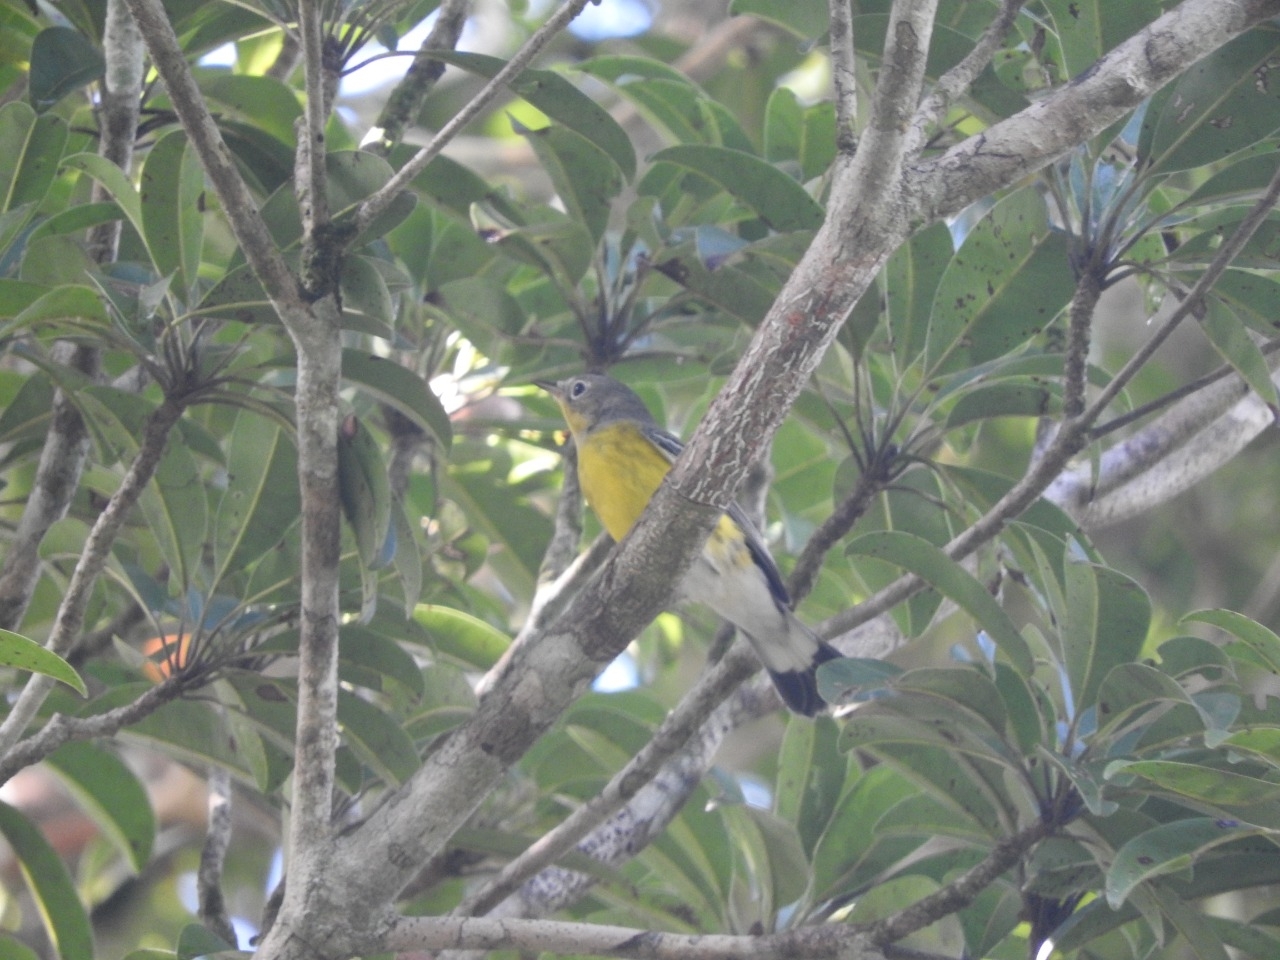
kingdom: Animalia
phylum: Chordata
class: Aves
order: Passeriformes
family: Parulidae
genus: Setophaga
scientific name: Setophaga magnolia
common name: Magnolia warbler
